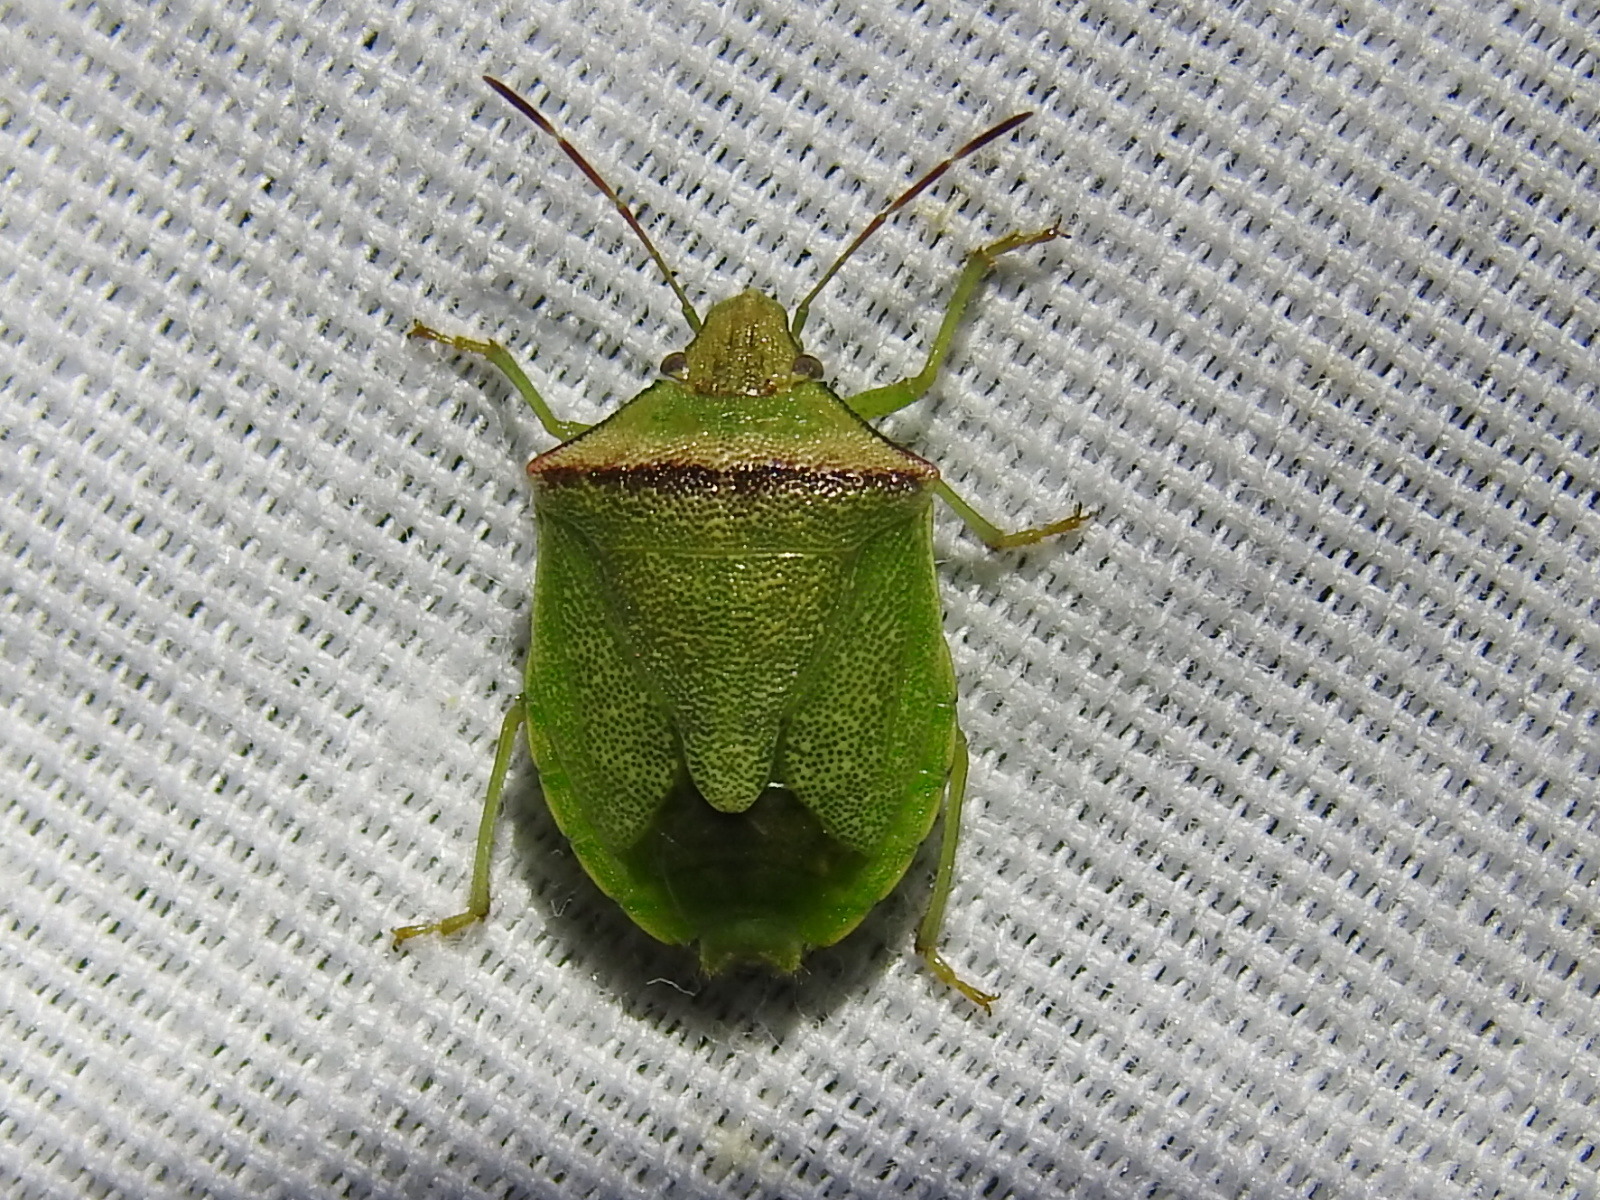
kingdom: Animalia
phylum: Arthropoda
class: Insecta
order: Hemiptera
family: Pentatomidae
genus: Thyanta
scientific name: Thyanta calceata
